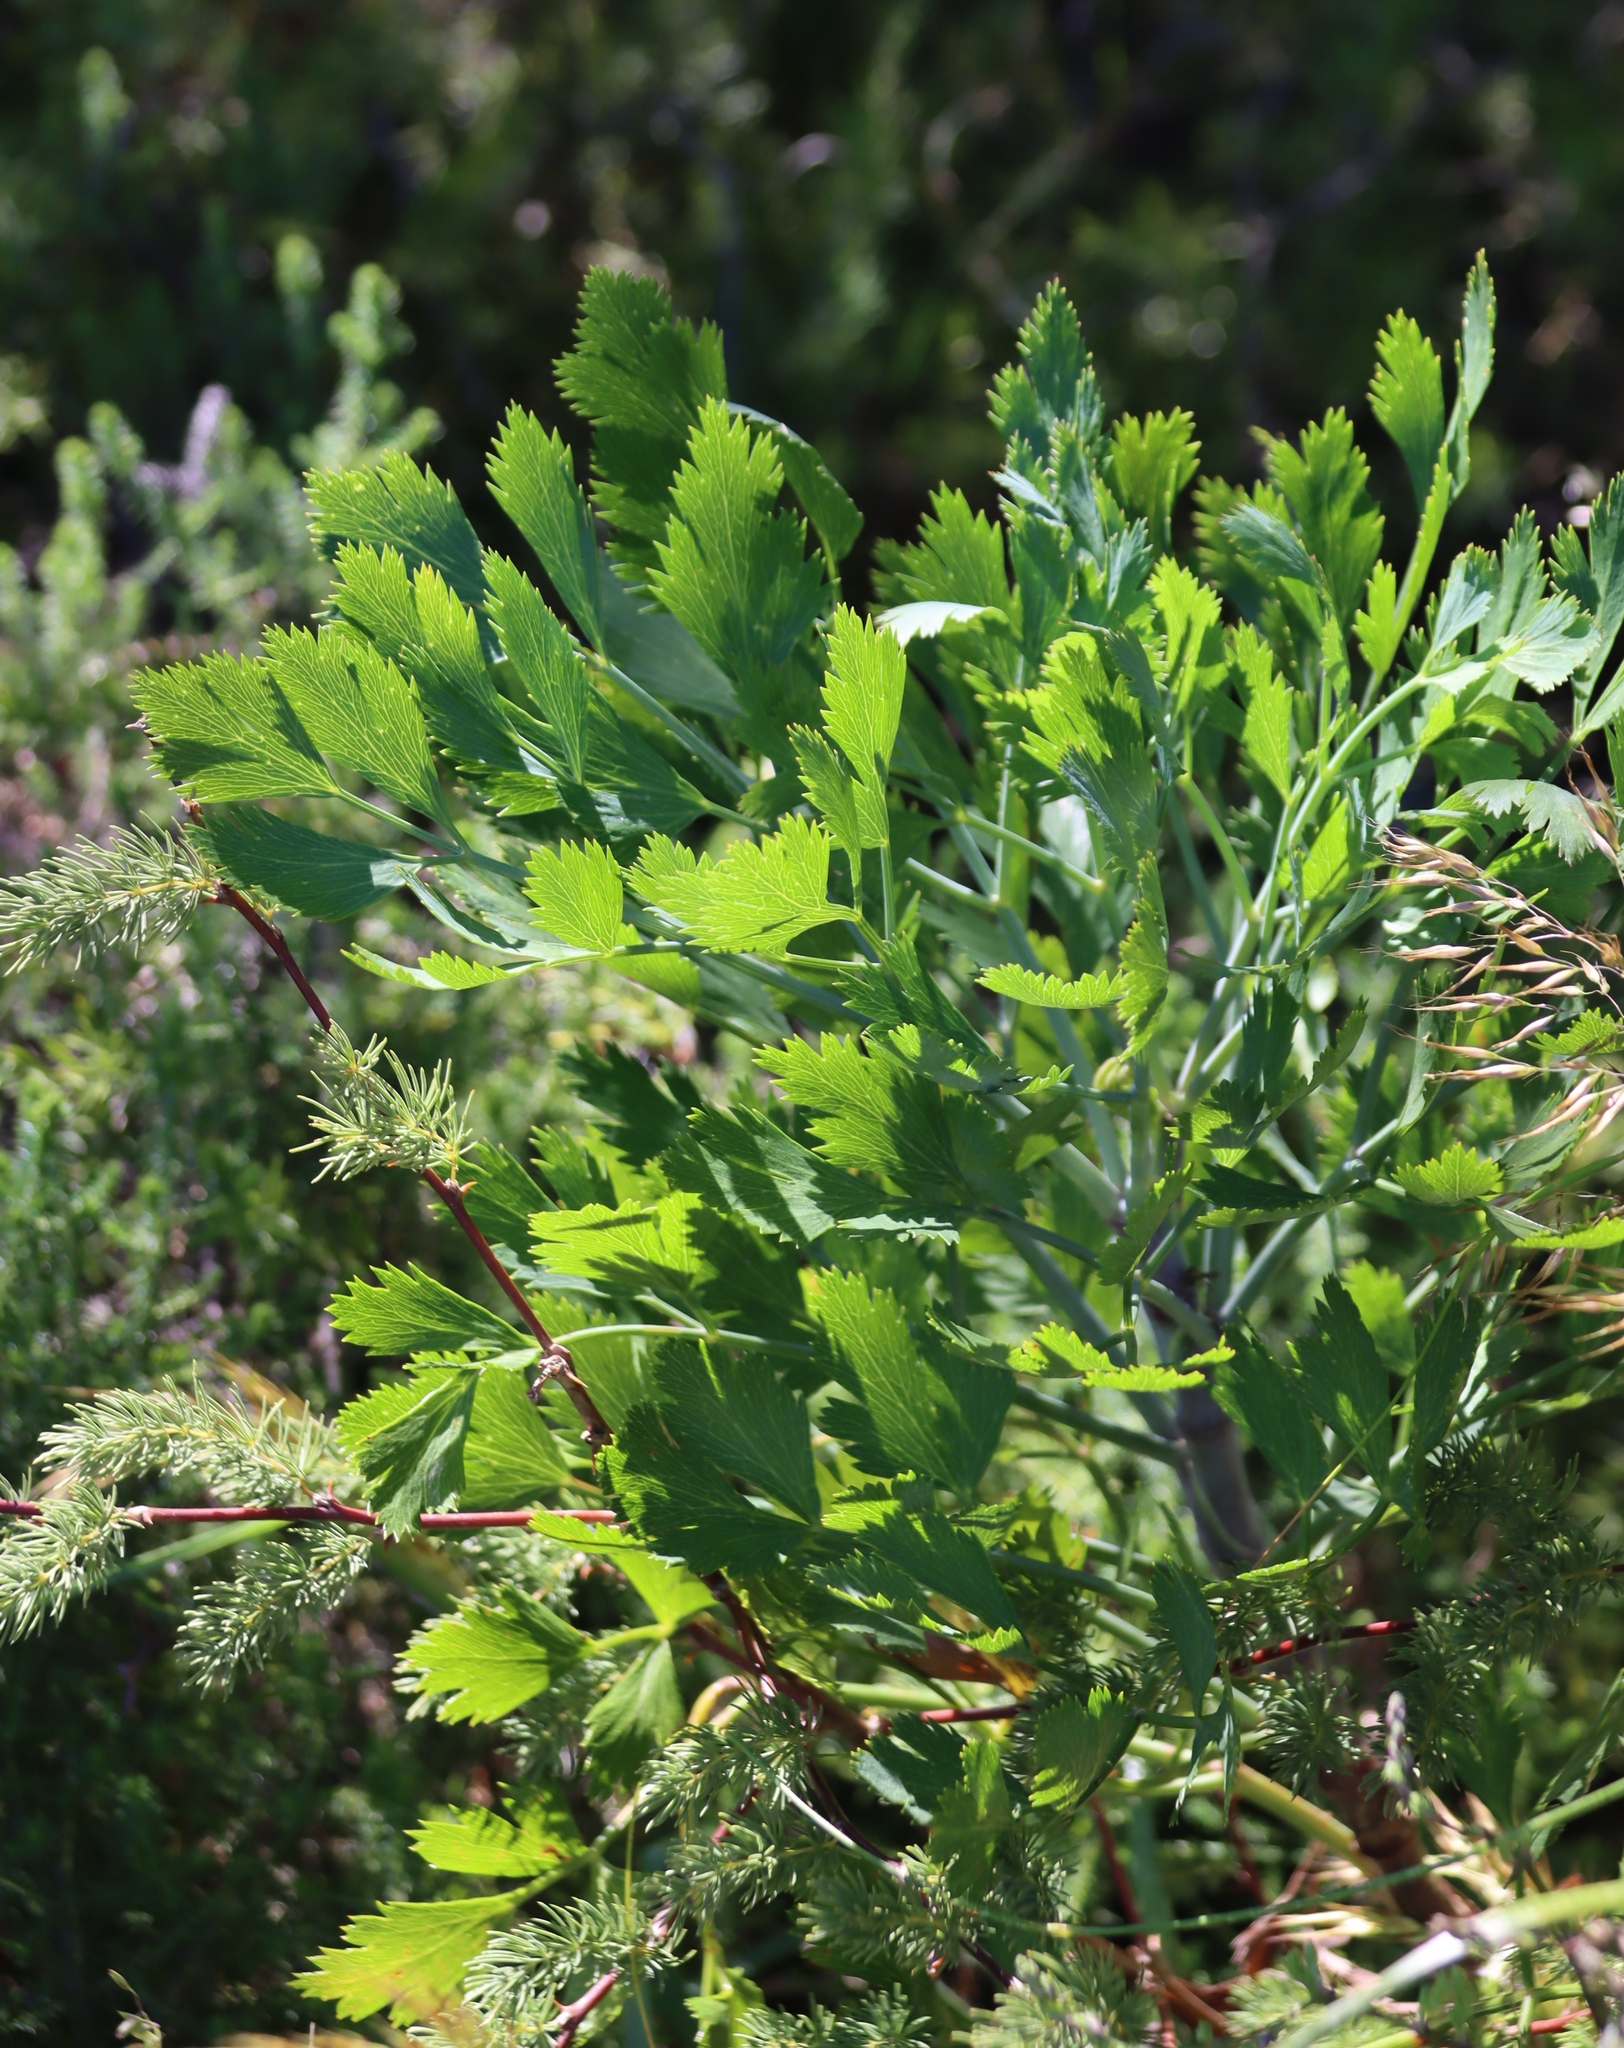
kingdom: Plantae
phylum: Tracheophyta
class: Magnoliopsida
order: Apiales
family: Apiaceae
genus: Notobubon
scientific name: Notobubon galbanum
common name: Blisterbush
